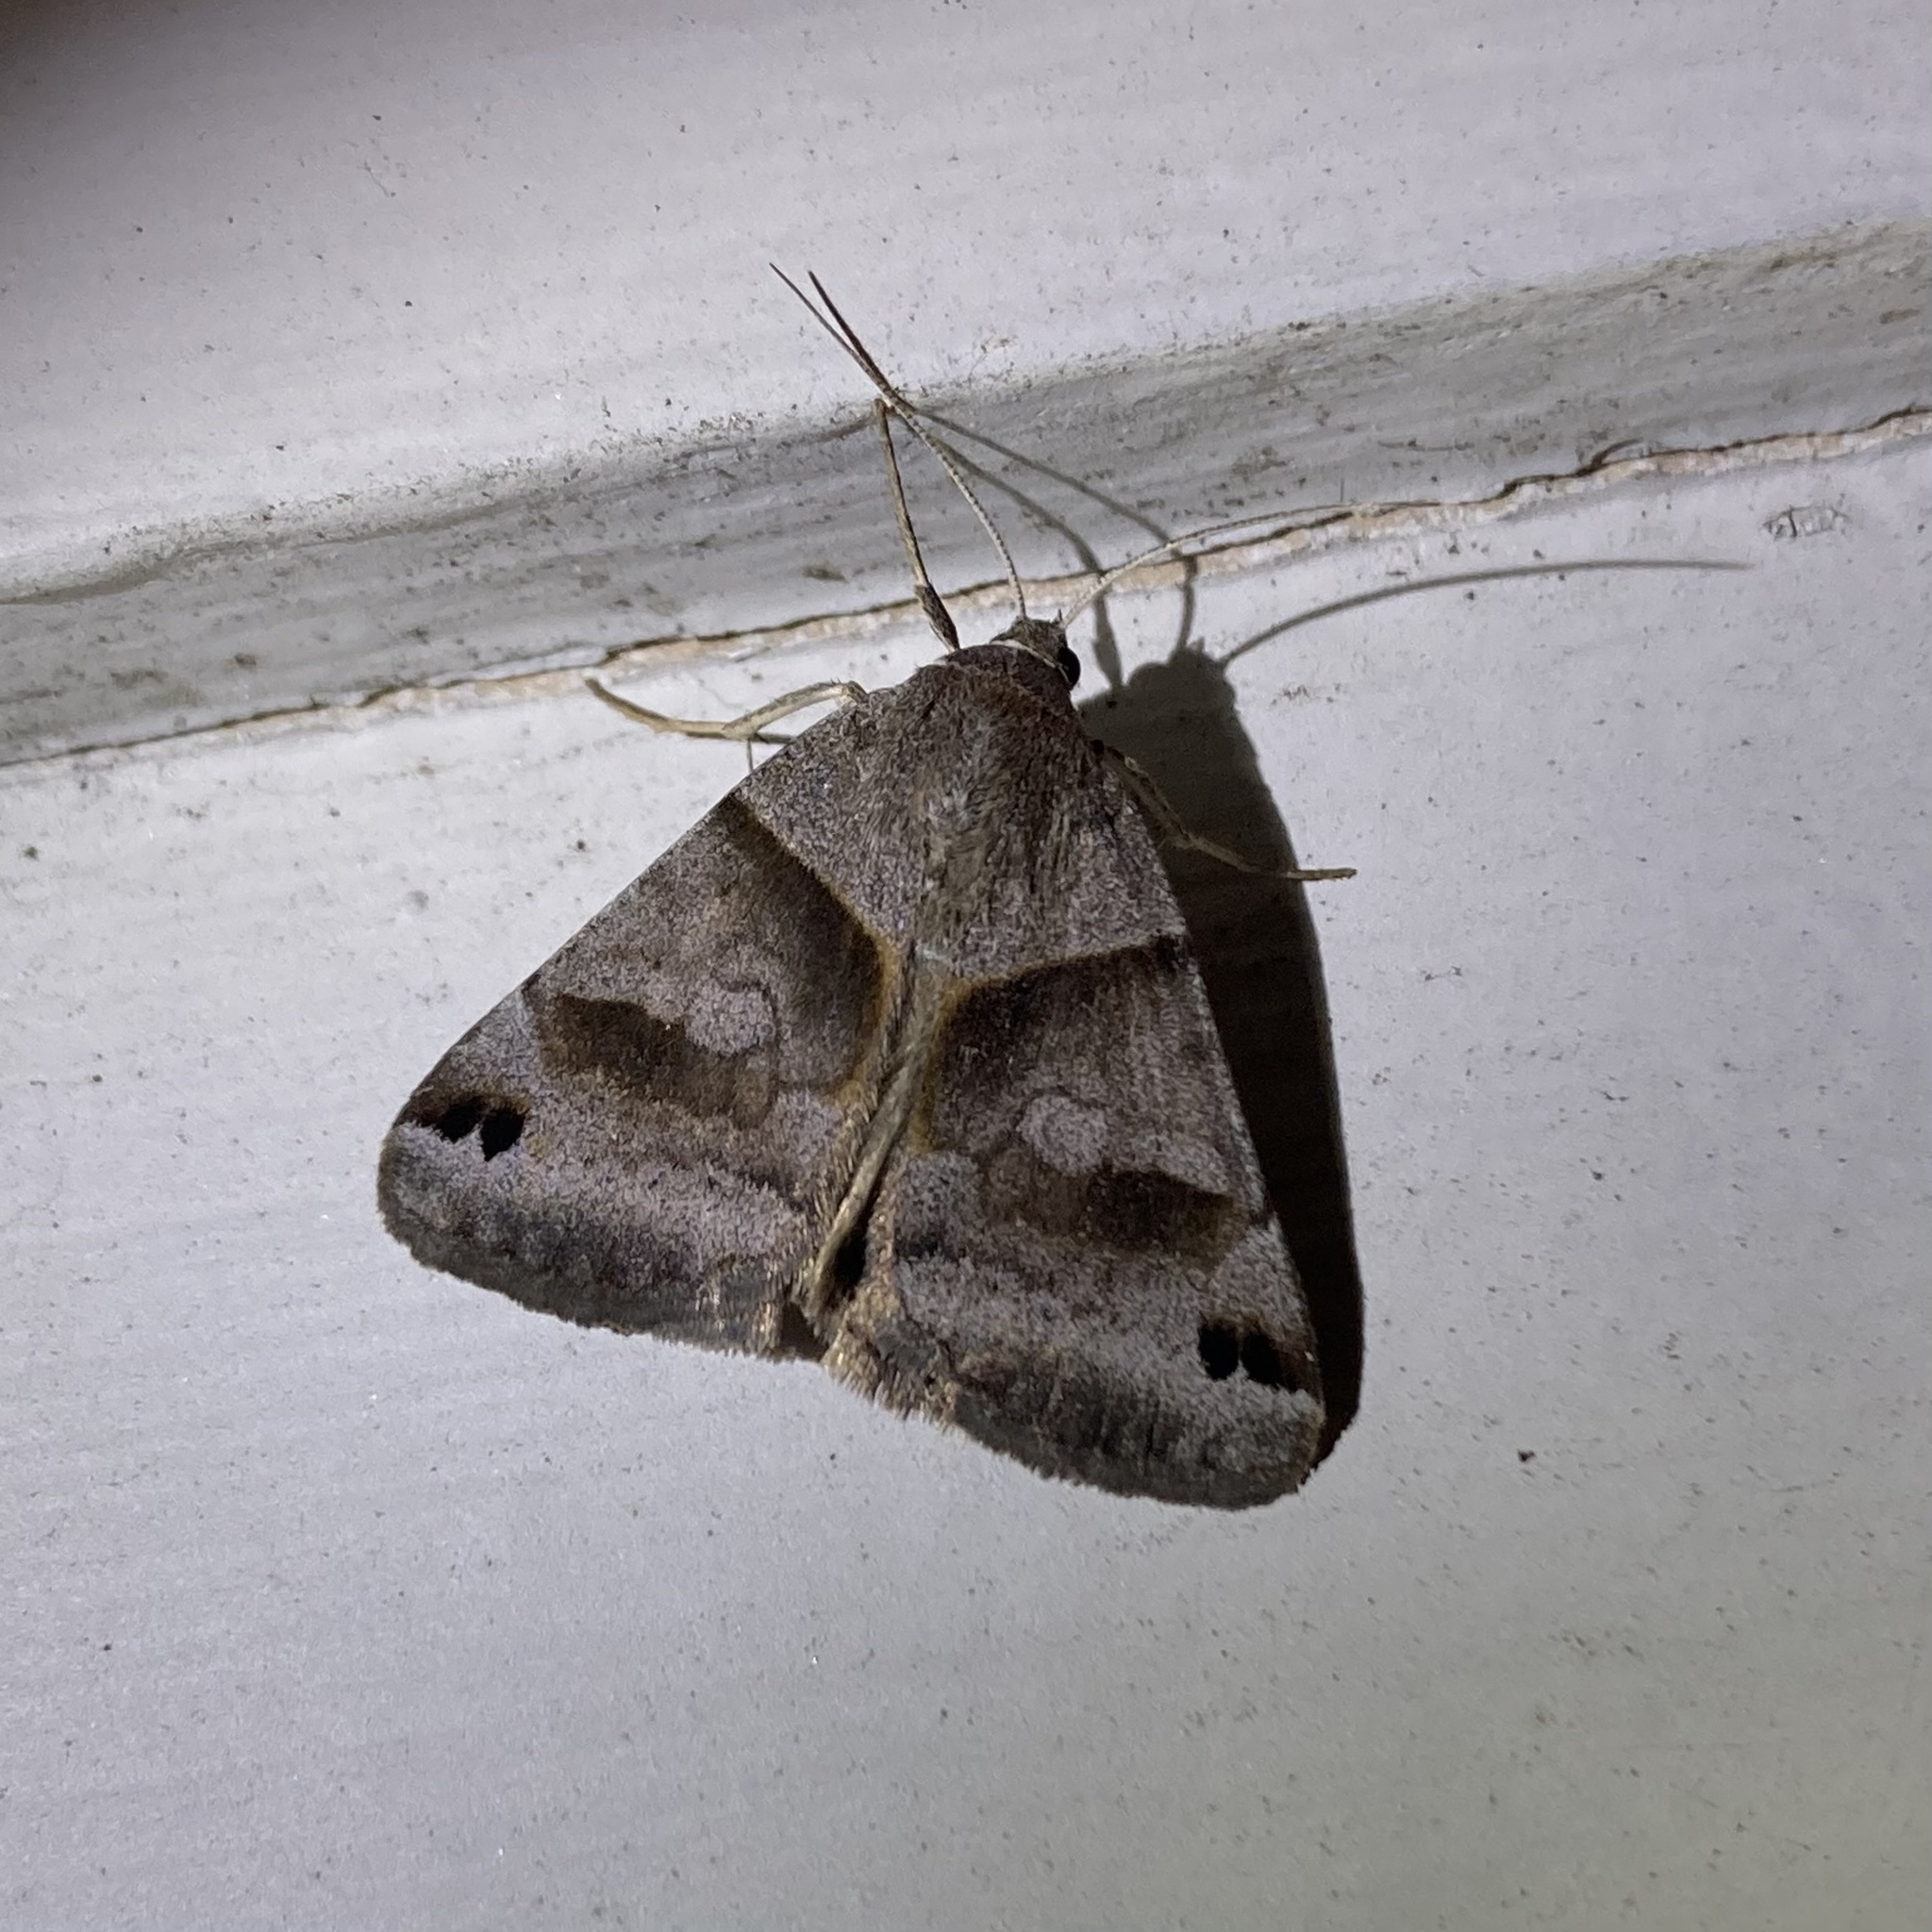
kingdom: Animalia
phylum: Arthropoda
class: Insecta
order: Lepidoptera
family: Erebidae
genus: Caenurgina
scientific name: Caenurgina crassiuscula
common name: Double-barred
